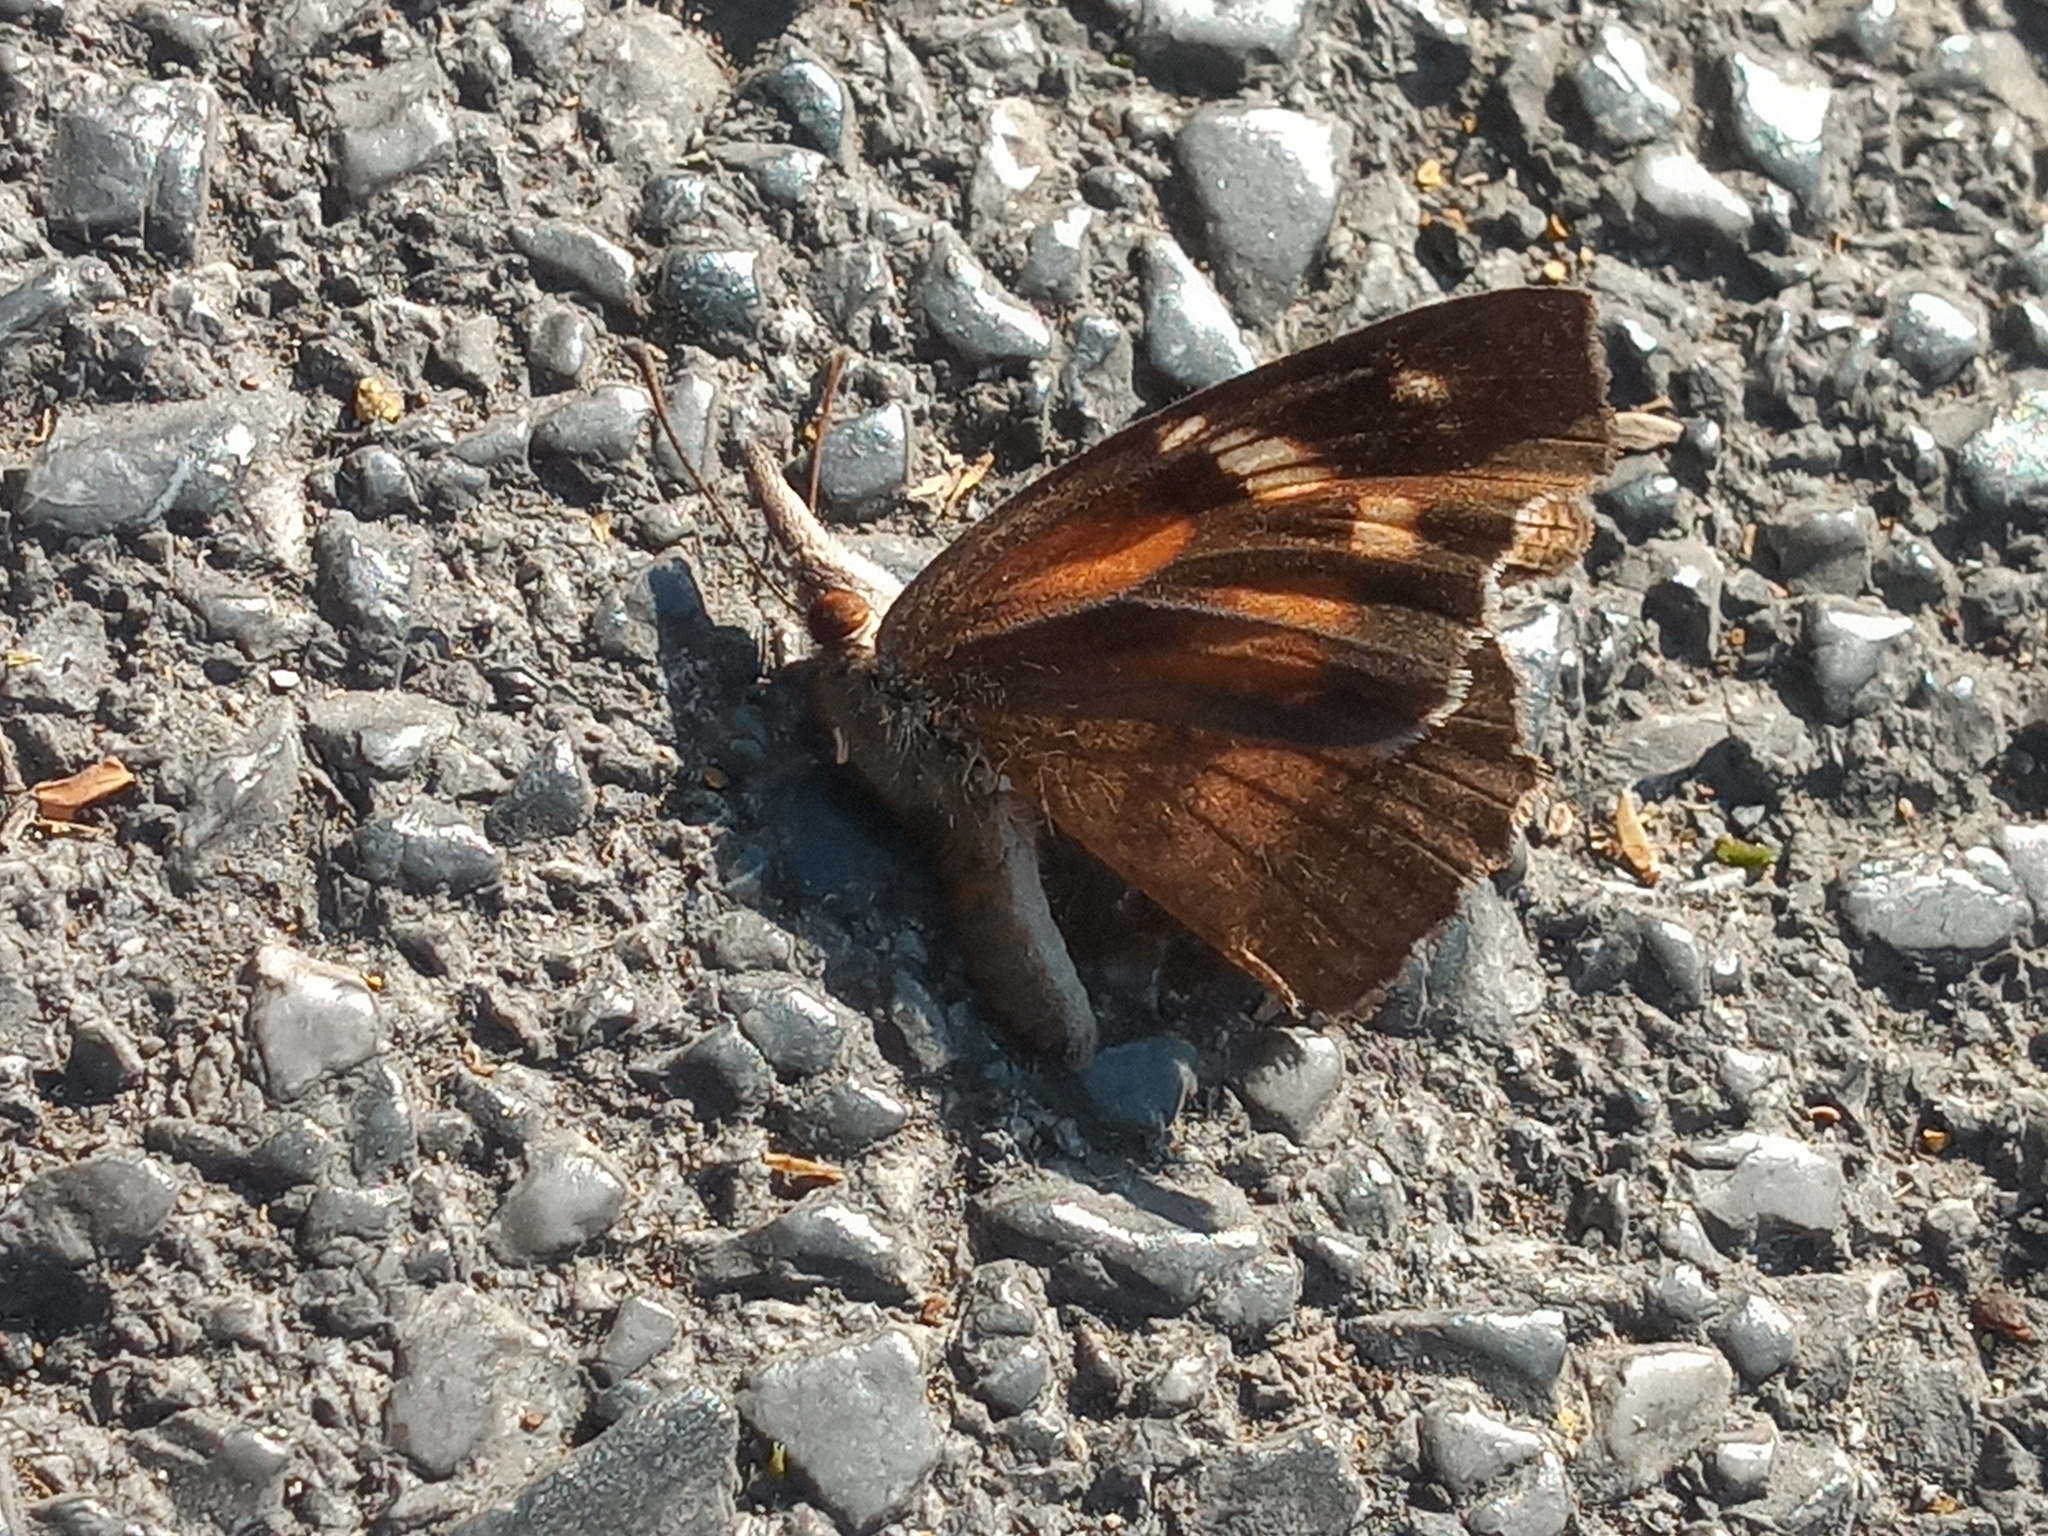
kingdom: Animalia
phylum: Arthropoda
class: Insecta
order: Lepidoptera
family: Nymphalidae
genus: Libytheana
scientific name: Libytheana carinenta
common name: American snout
